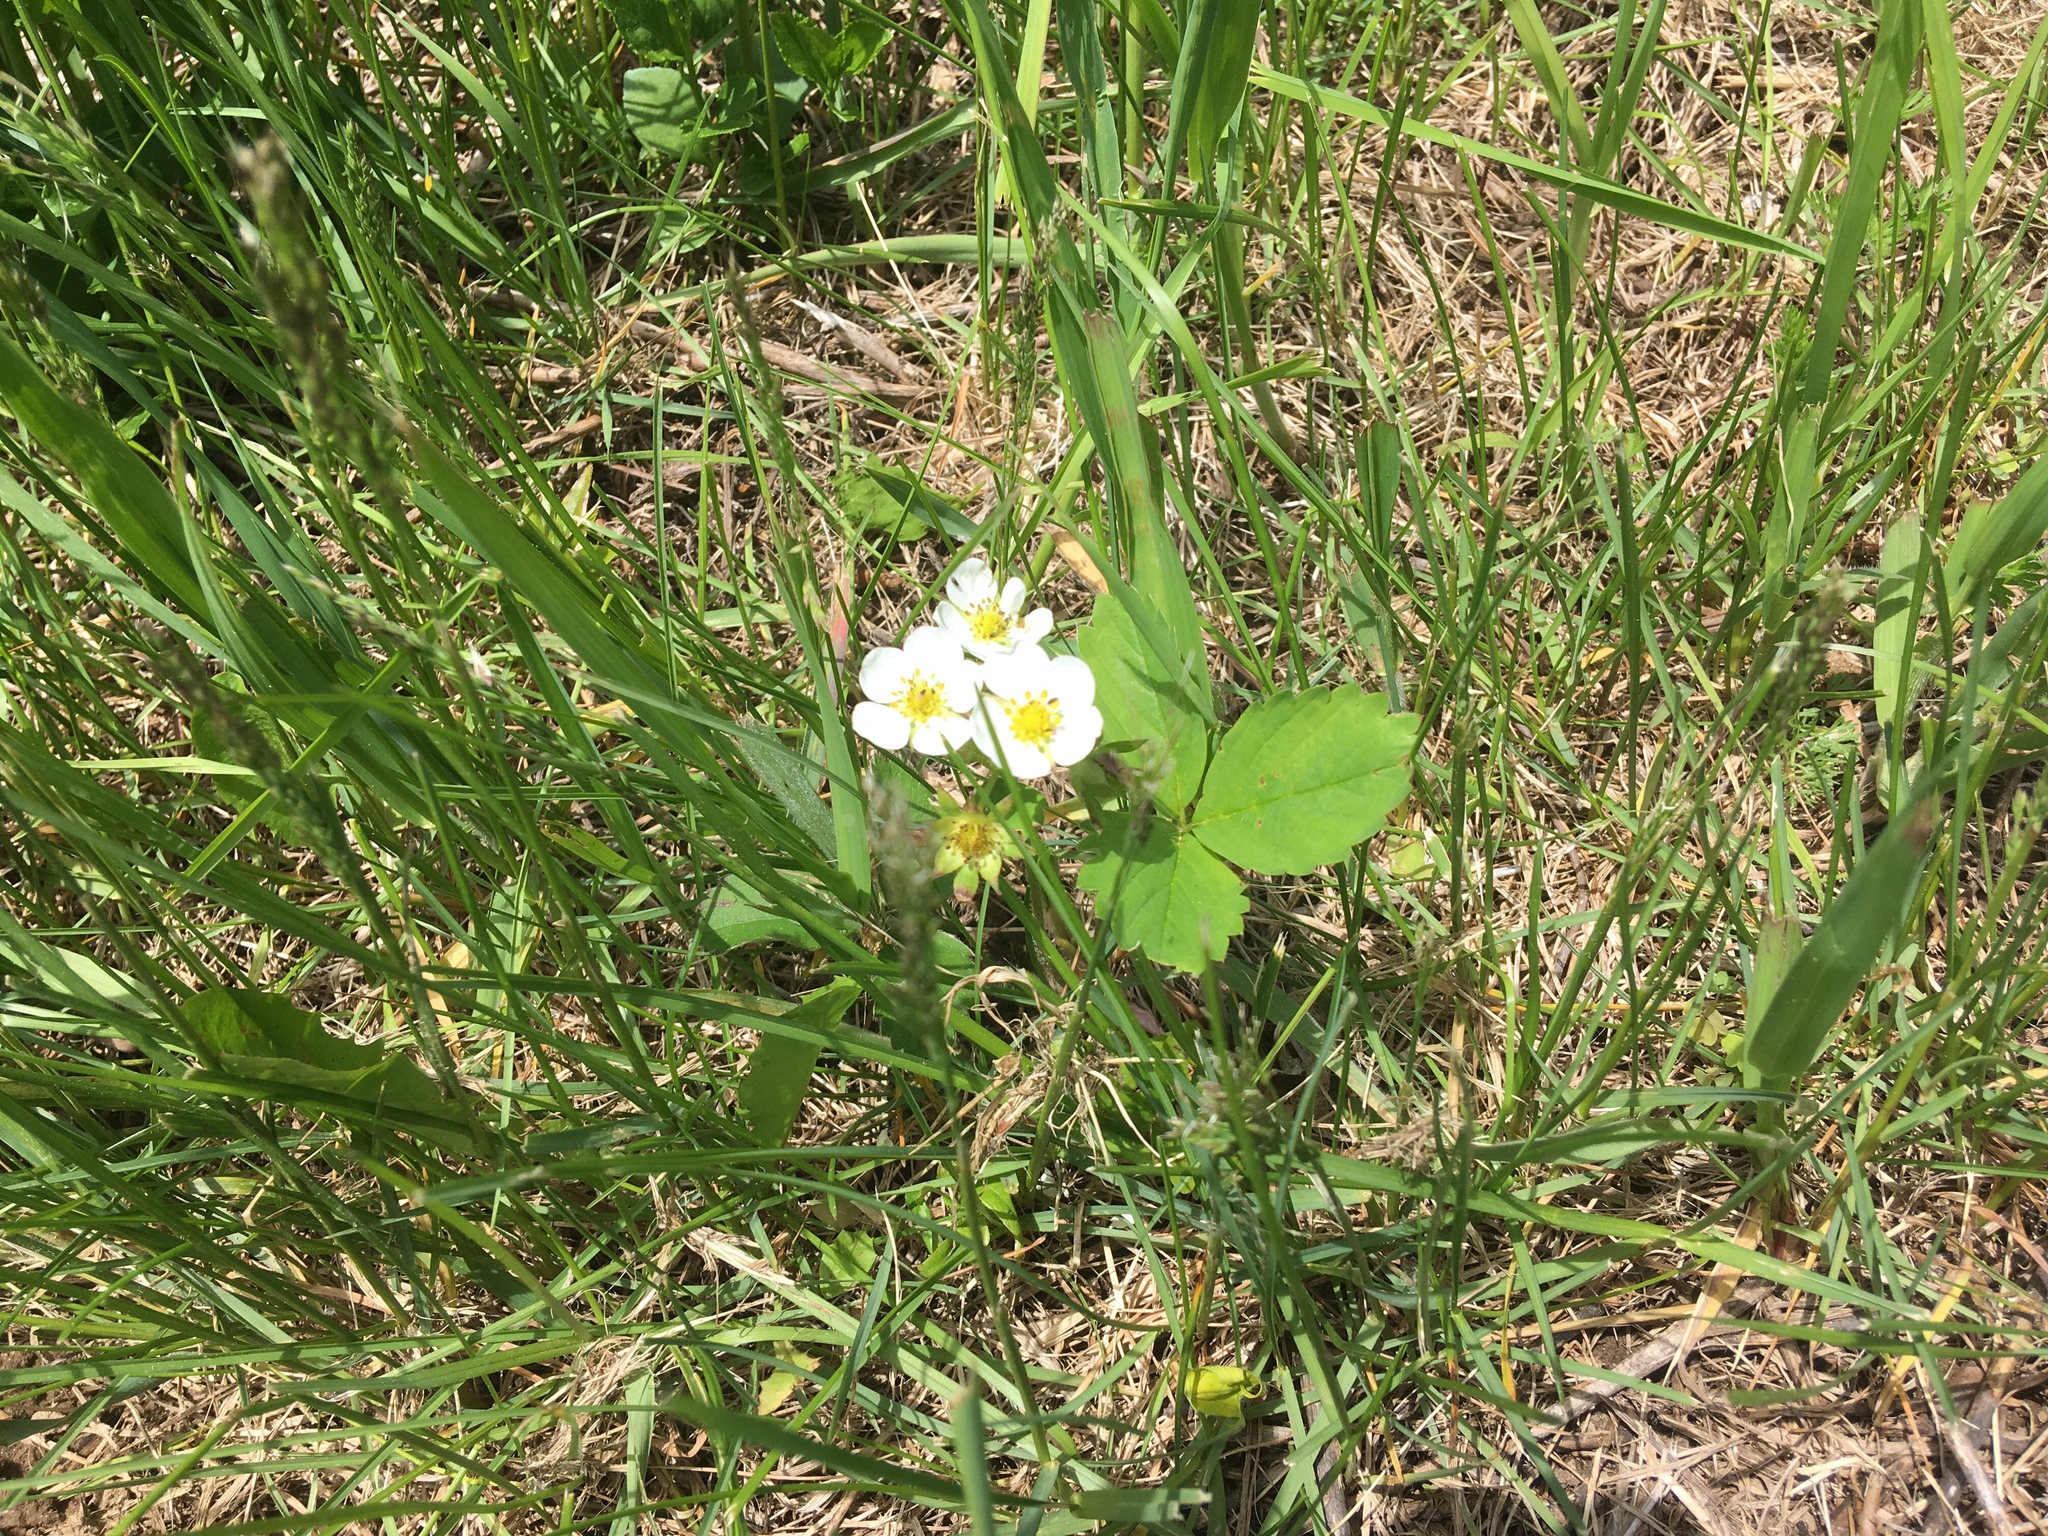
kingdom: Plantae
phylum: Tracheophyta
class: Magnoliopsida
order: Rosales
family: Rosaceae
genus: Fragaria
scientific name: Fragaria vesca
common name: Wild strawberry
